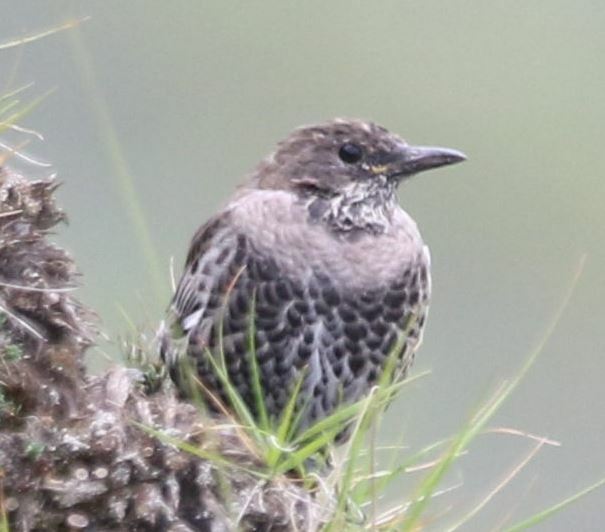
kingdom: Animalia
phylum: Chordata
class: Aves
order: Passeriformes
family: Turdidae
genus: Turdus
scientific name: Turdus torquatus
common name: Ring ouzel
